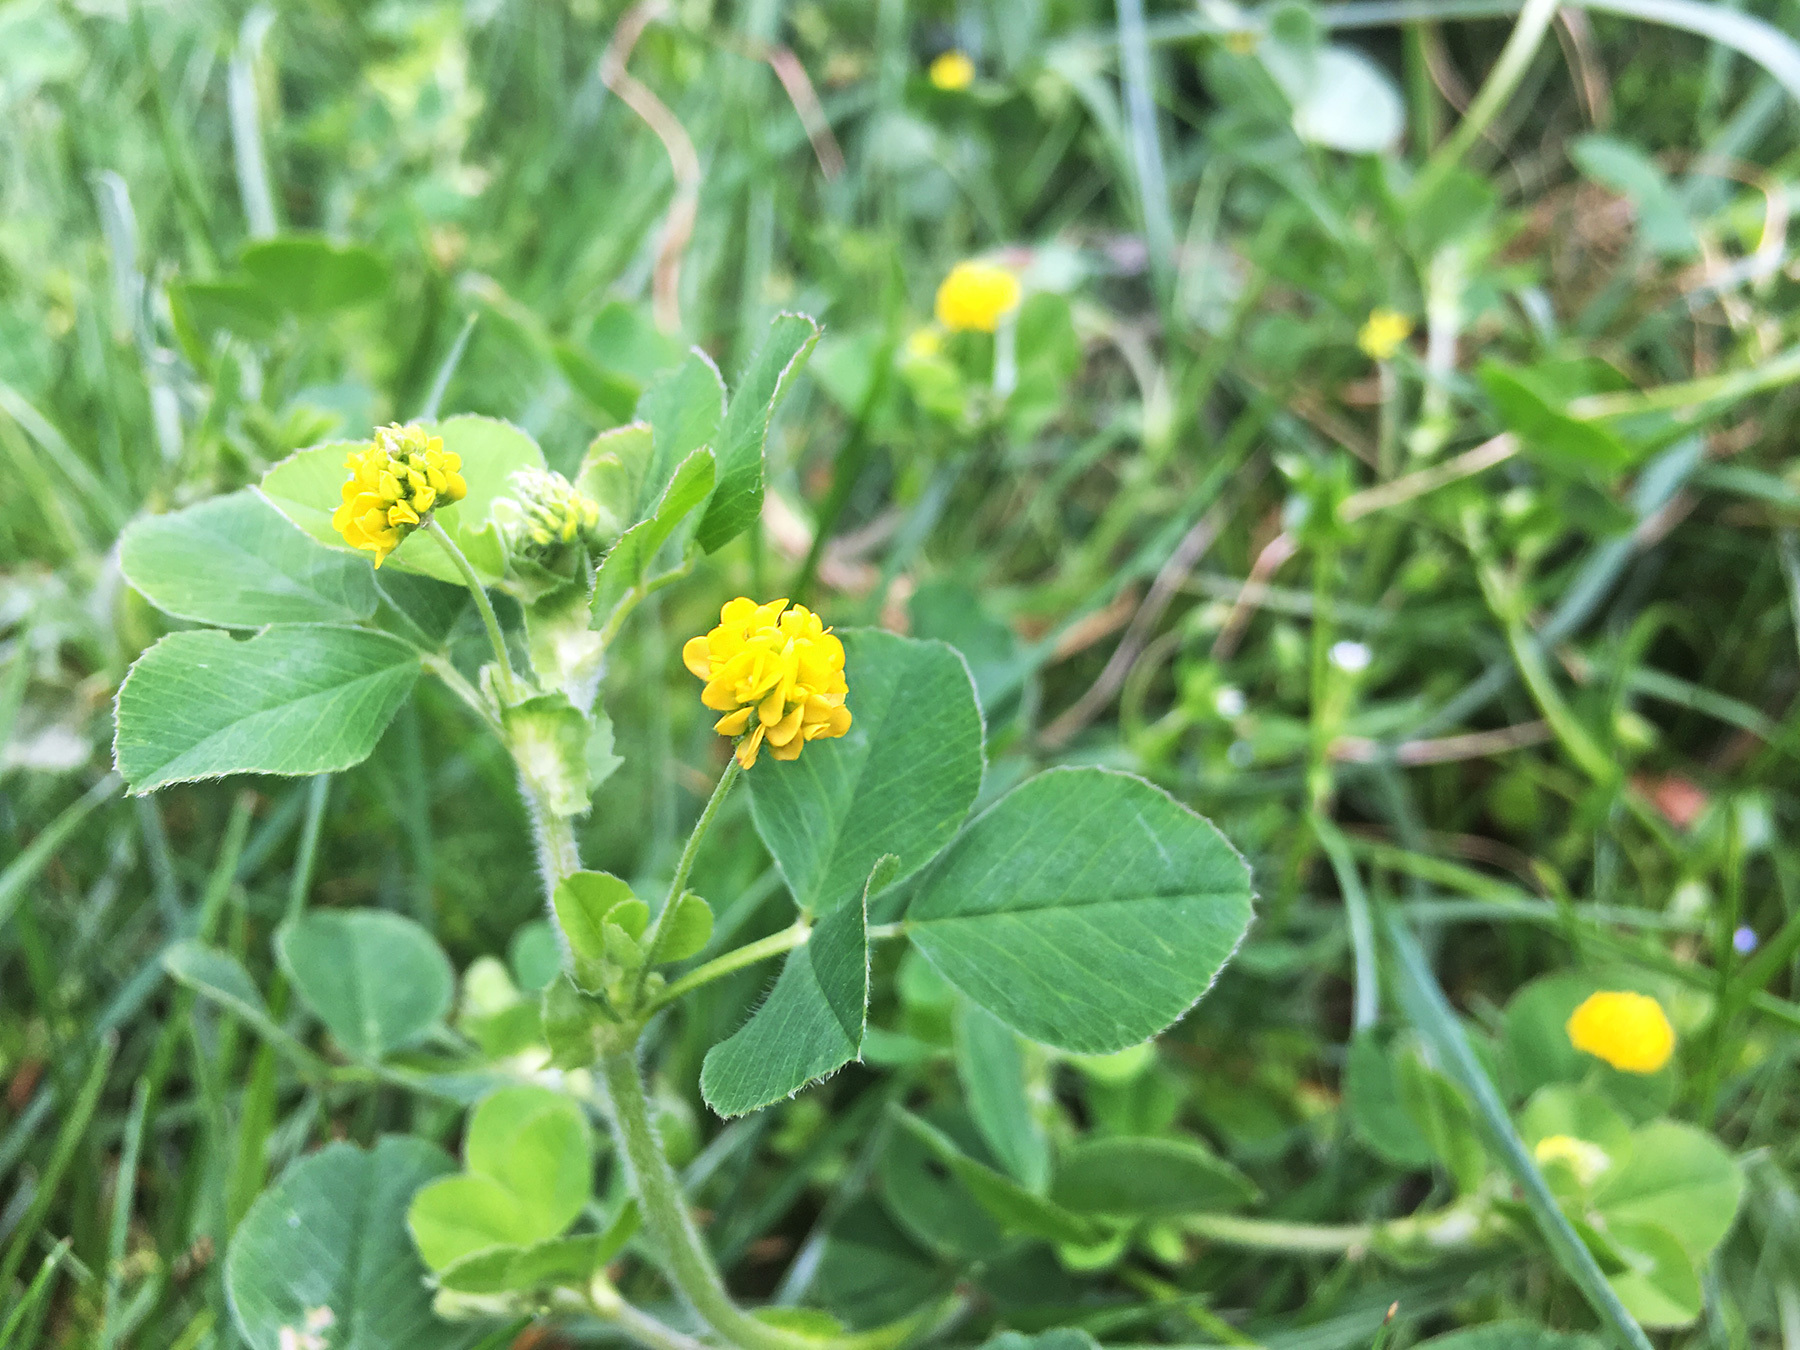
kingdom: Plantae
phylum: Tracheophyta
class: Magnoliopsida
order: Fabales
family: Fabaceae
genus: Medicago
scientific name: Medicago lupulina
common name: Black medick
